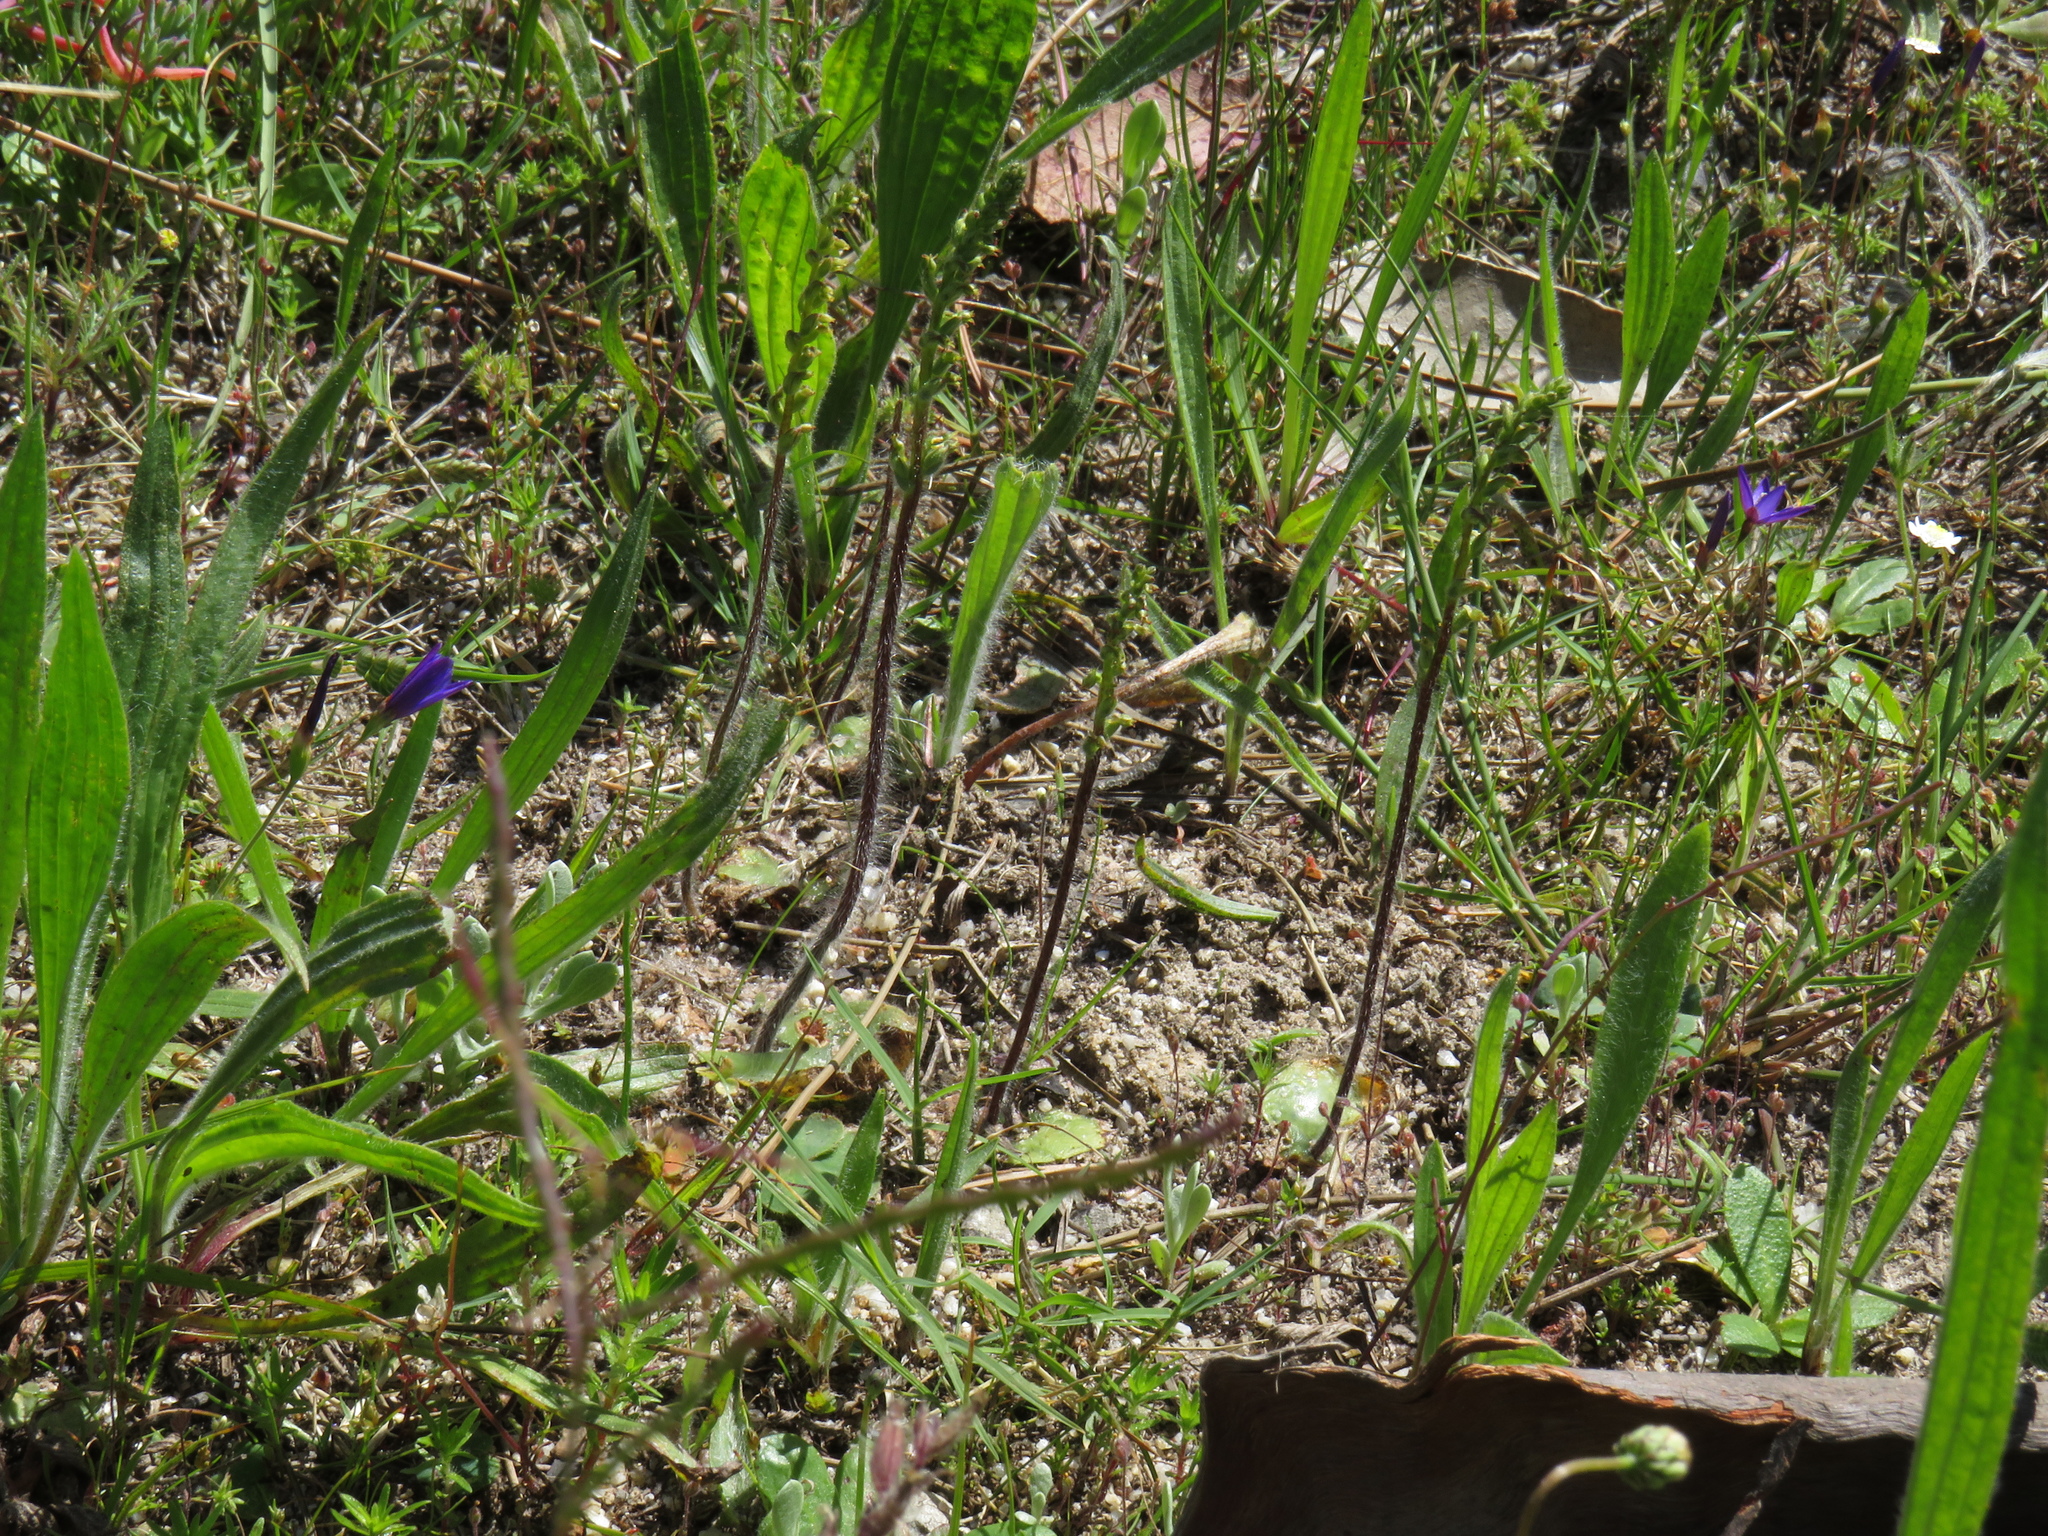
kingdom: Plantae
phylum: Tracheophyta
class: Liliopsida
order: Asparagales
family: Orchidaceae
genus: Holothrix
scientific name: Holothrix villosa
